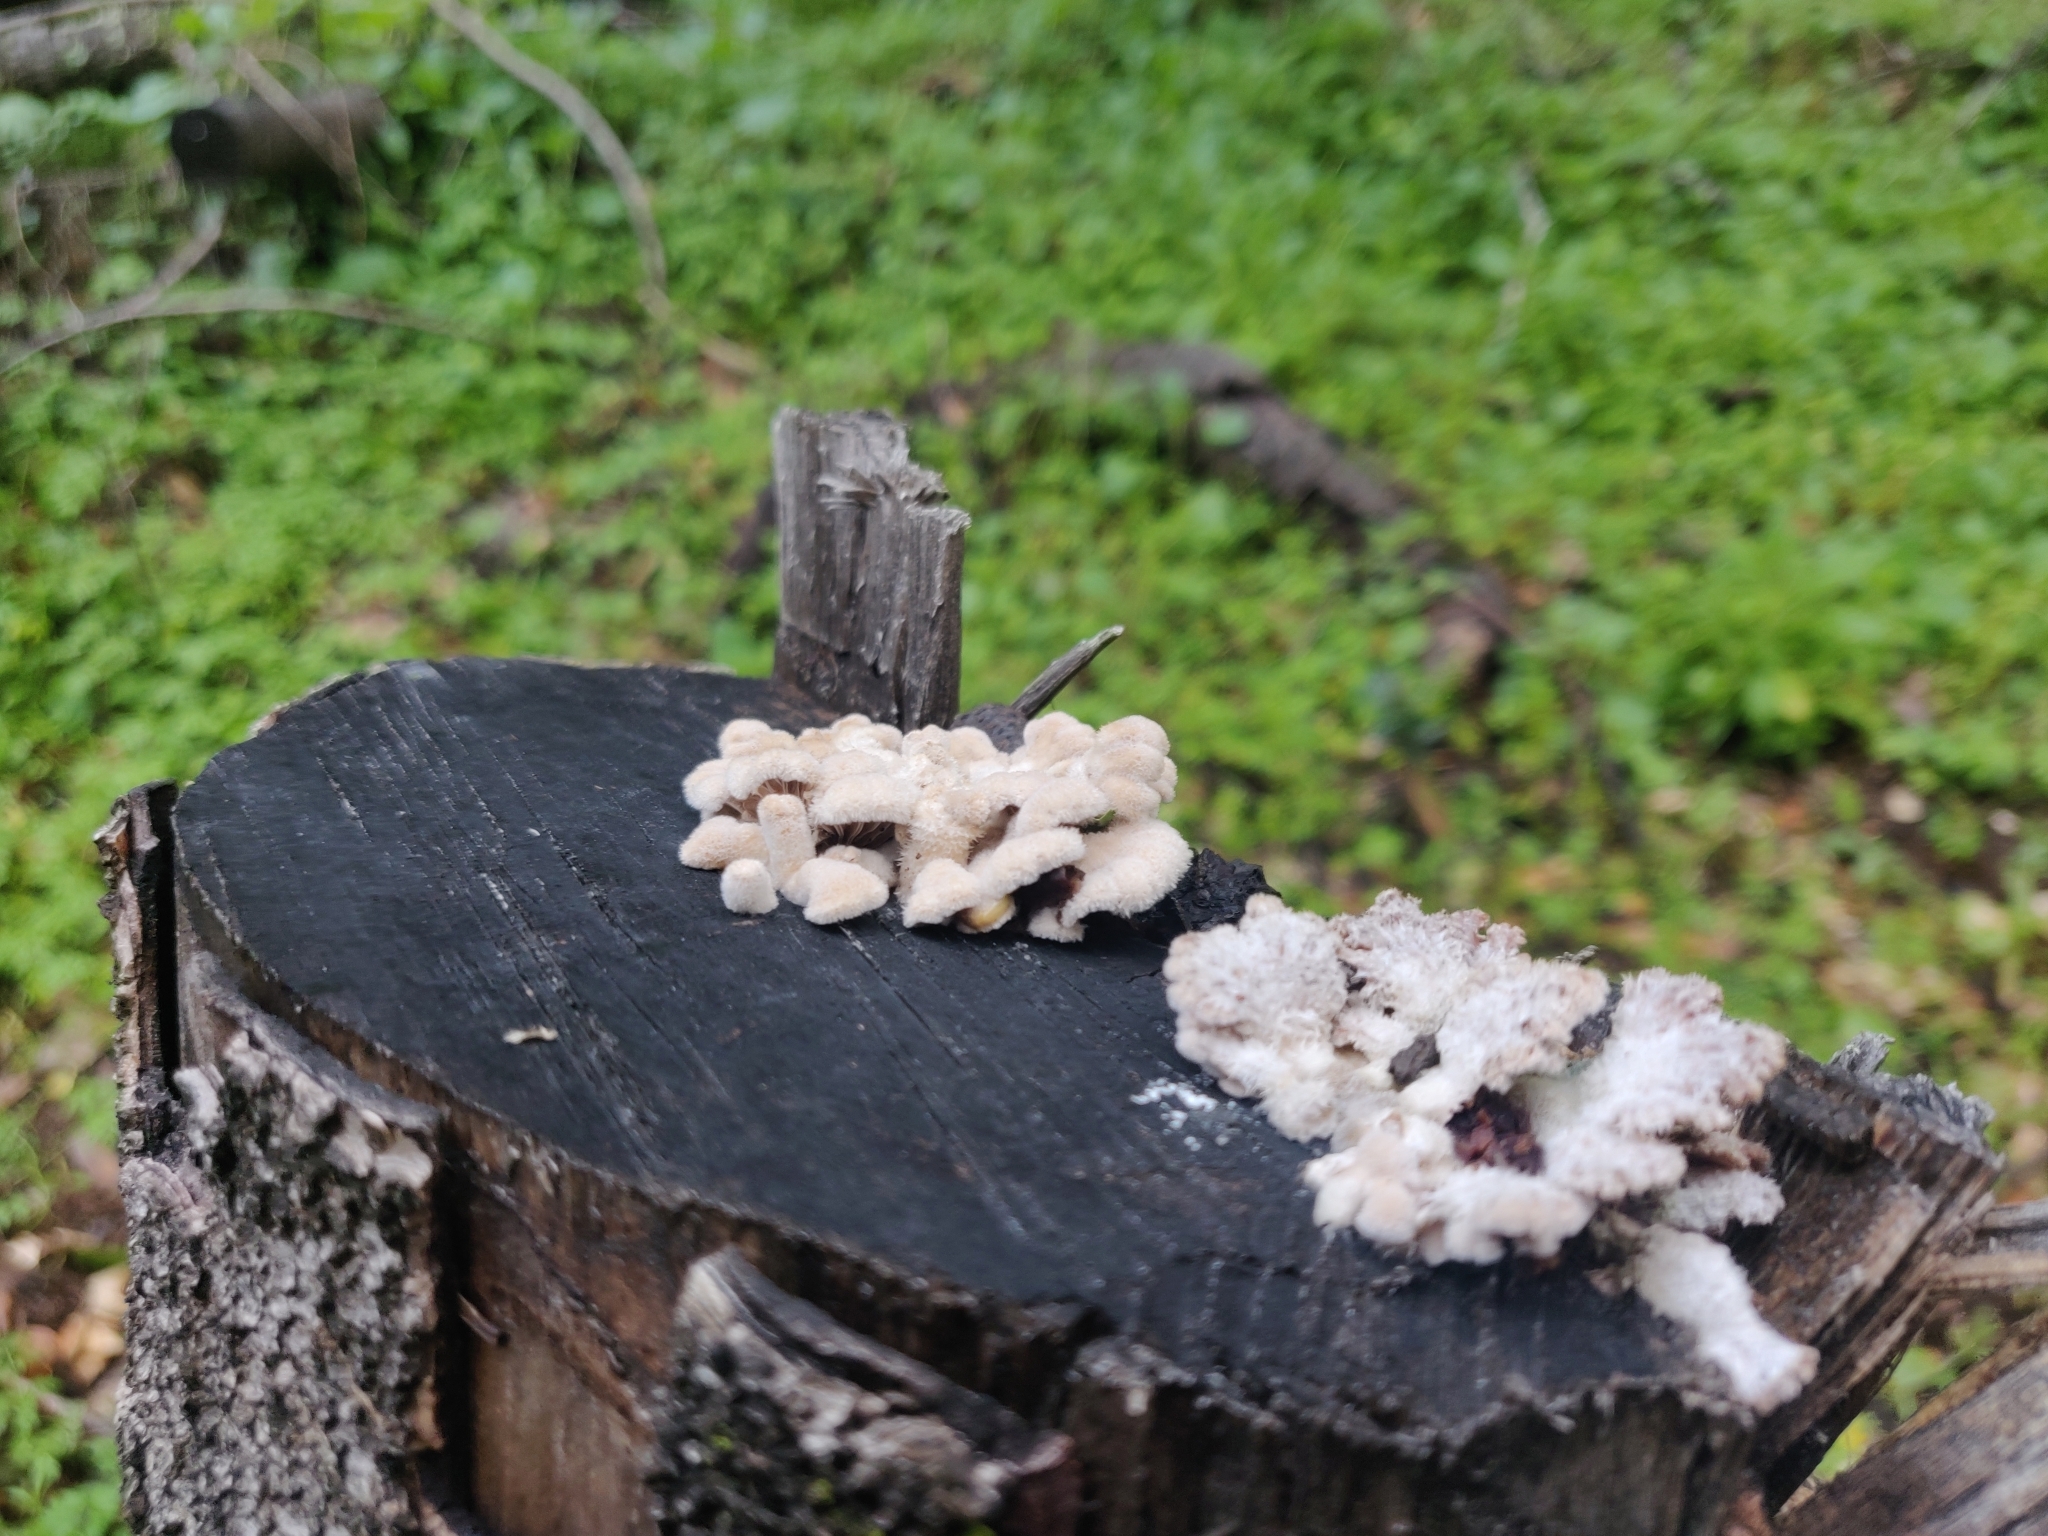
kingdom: Fungi
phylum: Basidiomycota
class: Agaricomycetes
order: Agaricales
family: Schizophyllaceae
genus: Schizophyllum
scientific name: Schizophyllum commune
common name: Common porecrust
